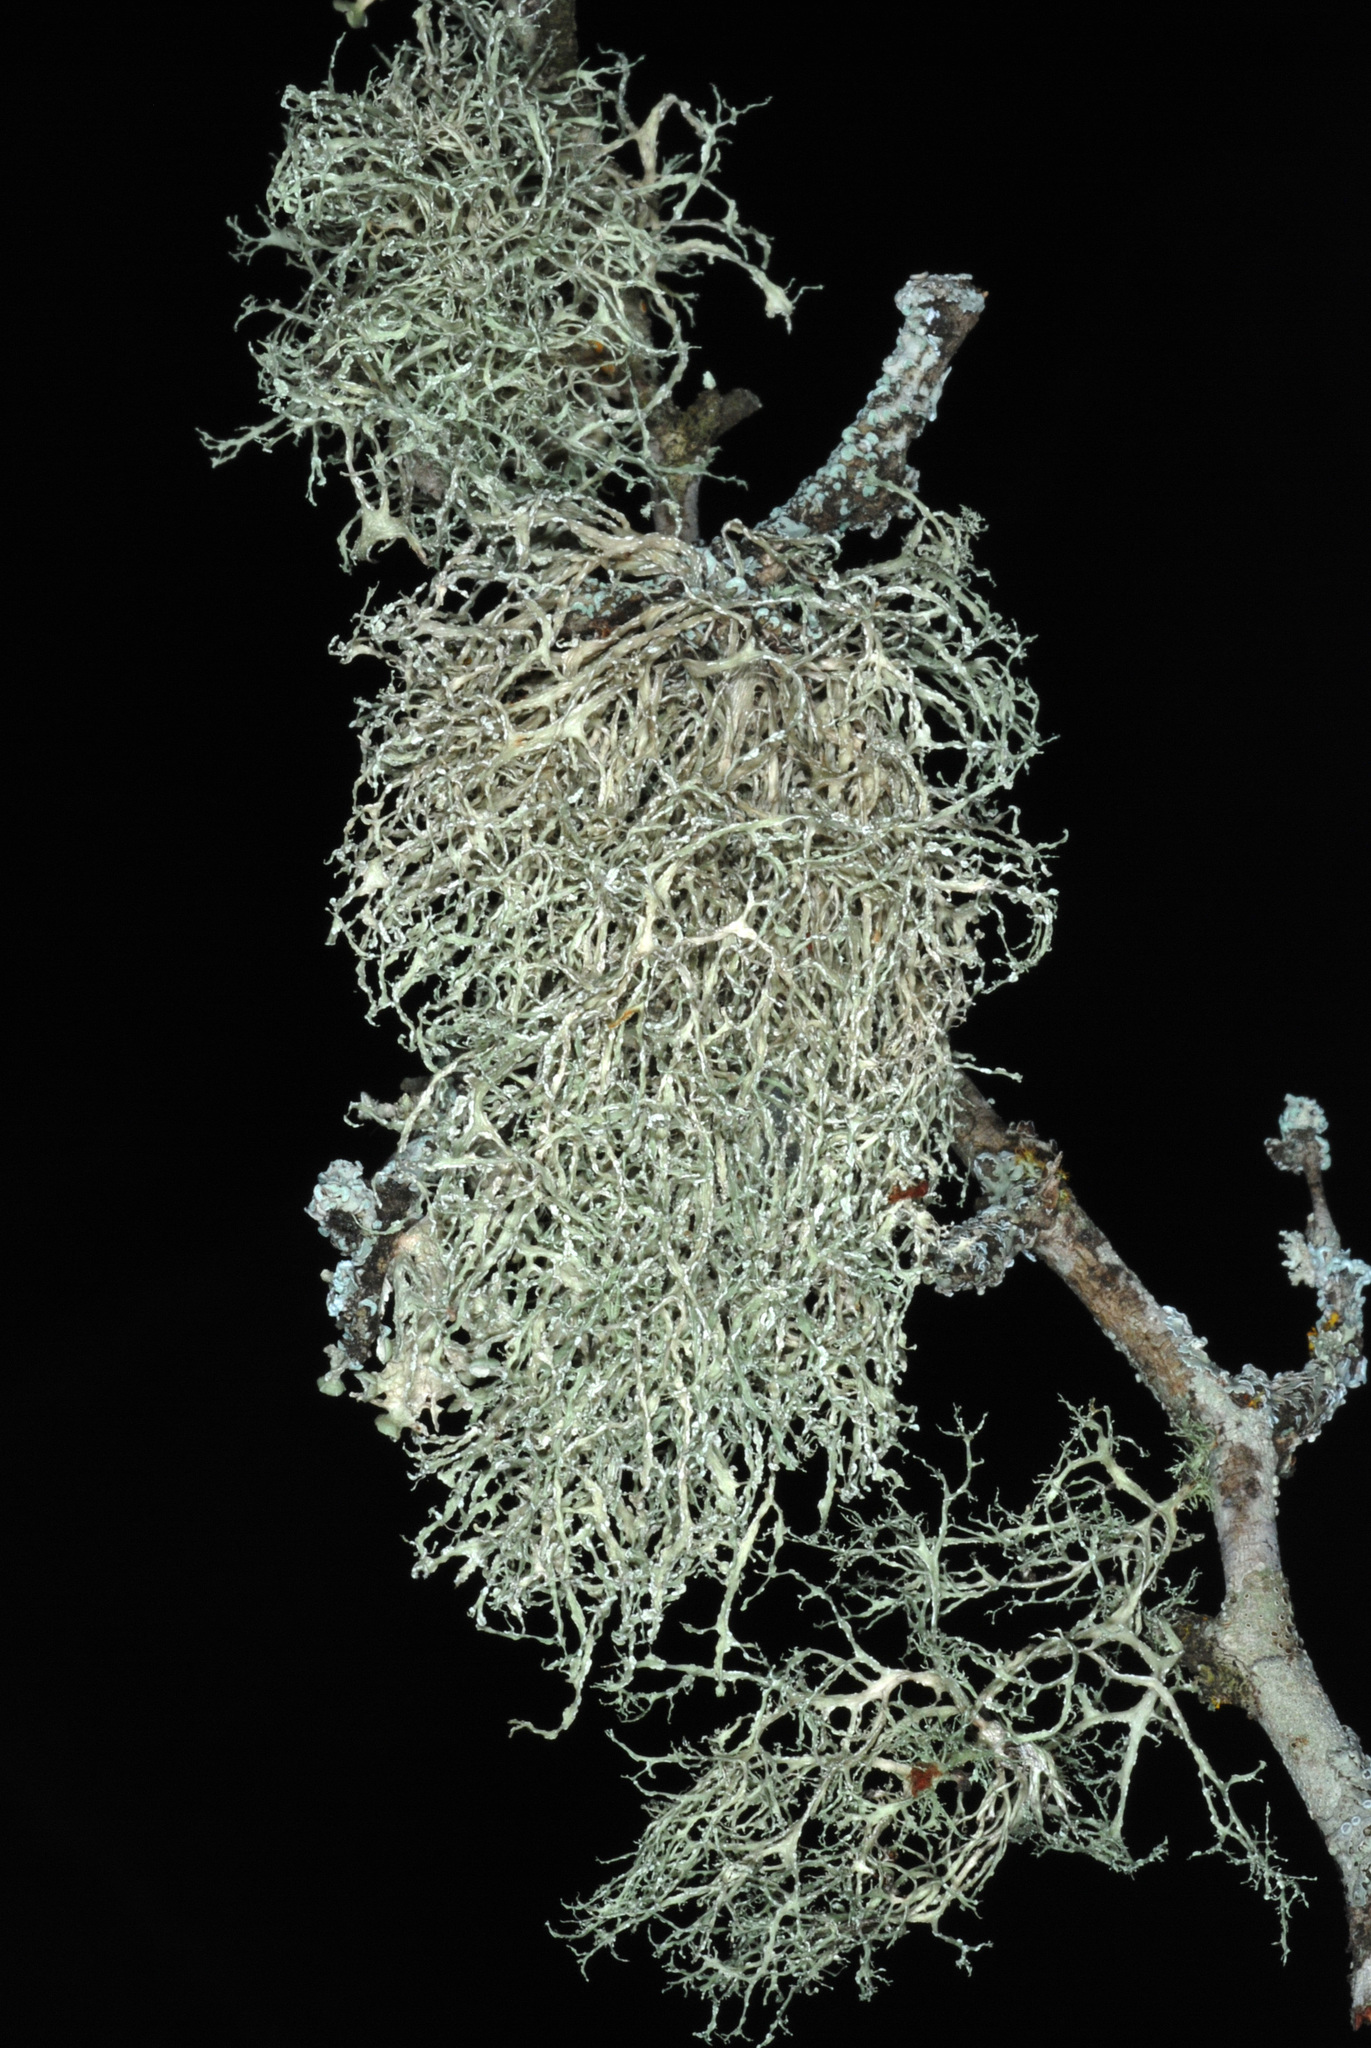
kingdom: Fungi
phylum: Ascomycota
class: Lecanoromycetes
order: Lecanorales
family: Ramalinaceae
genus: Ramalina
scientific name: Ramalina peruviana
